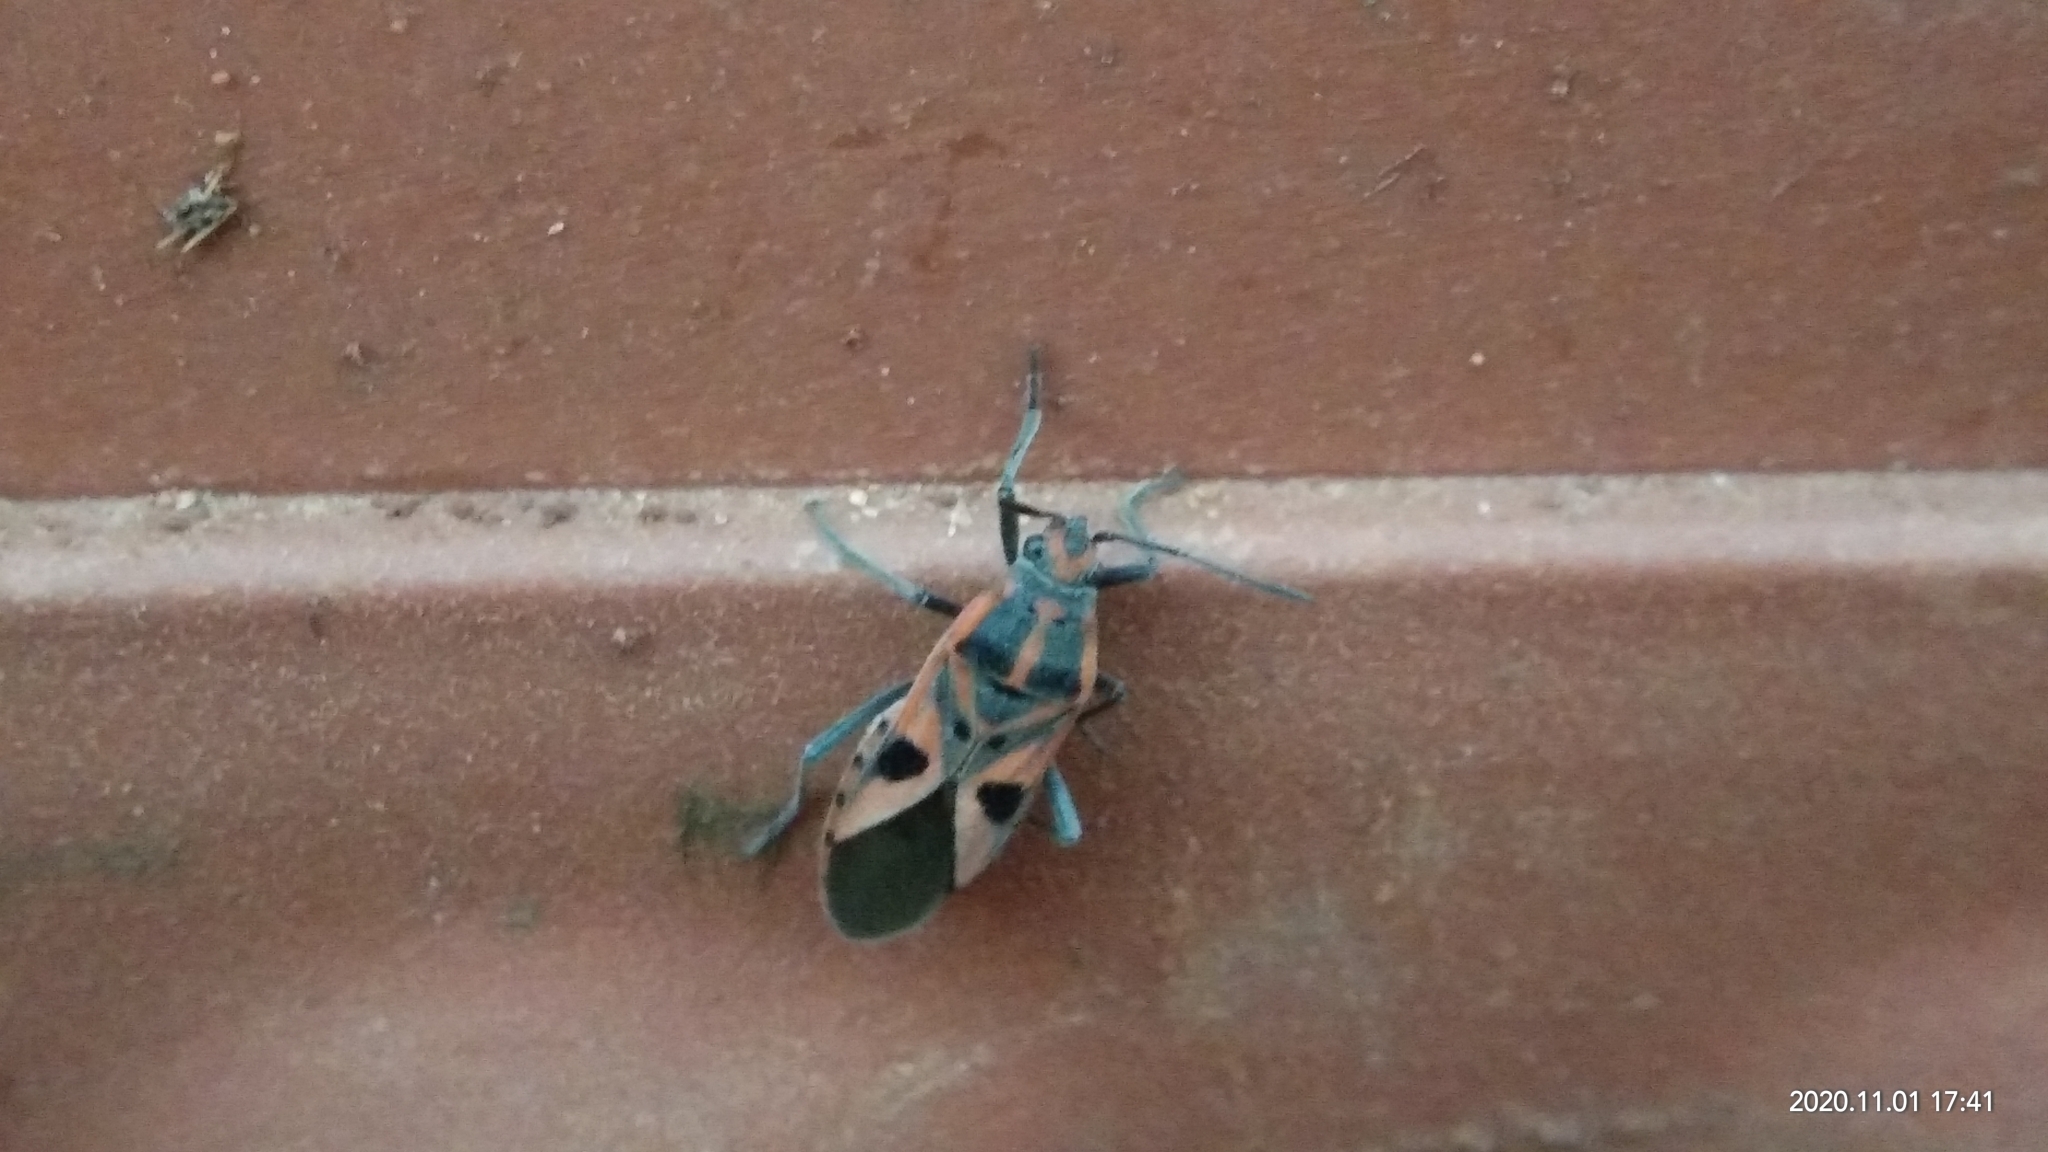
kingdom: Animalia
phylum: Arthropoda
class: Insecta
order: Hemiptera
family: Lygaeidae
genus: Spilostethus
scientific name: Spilostethus hospes
